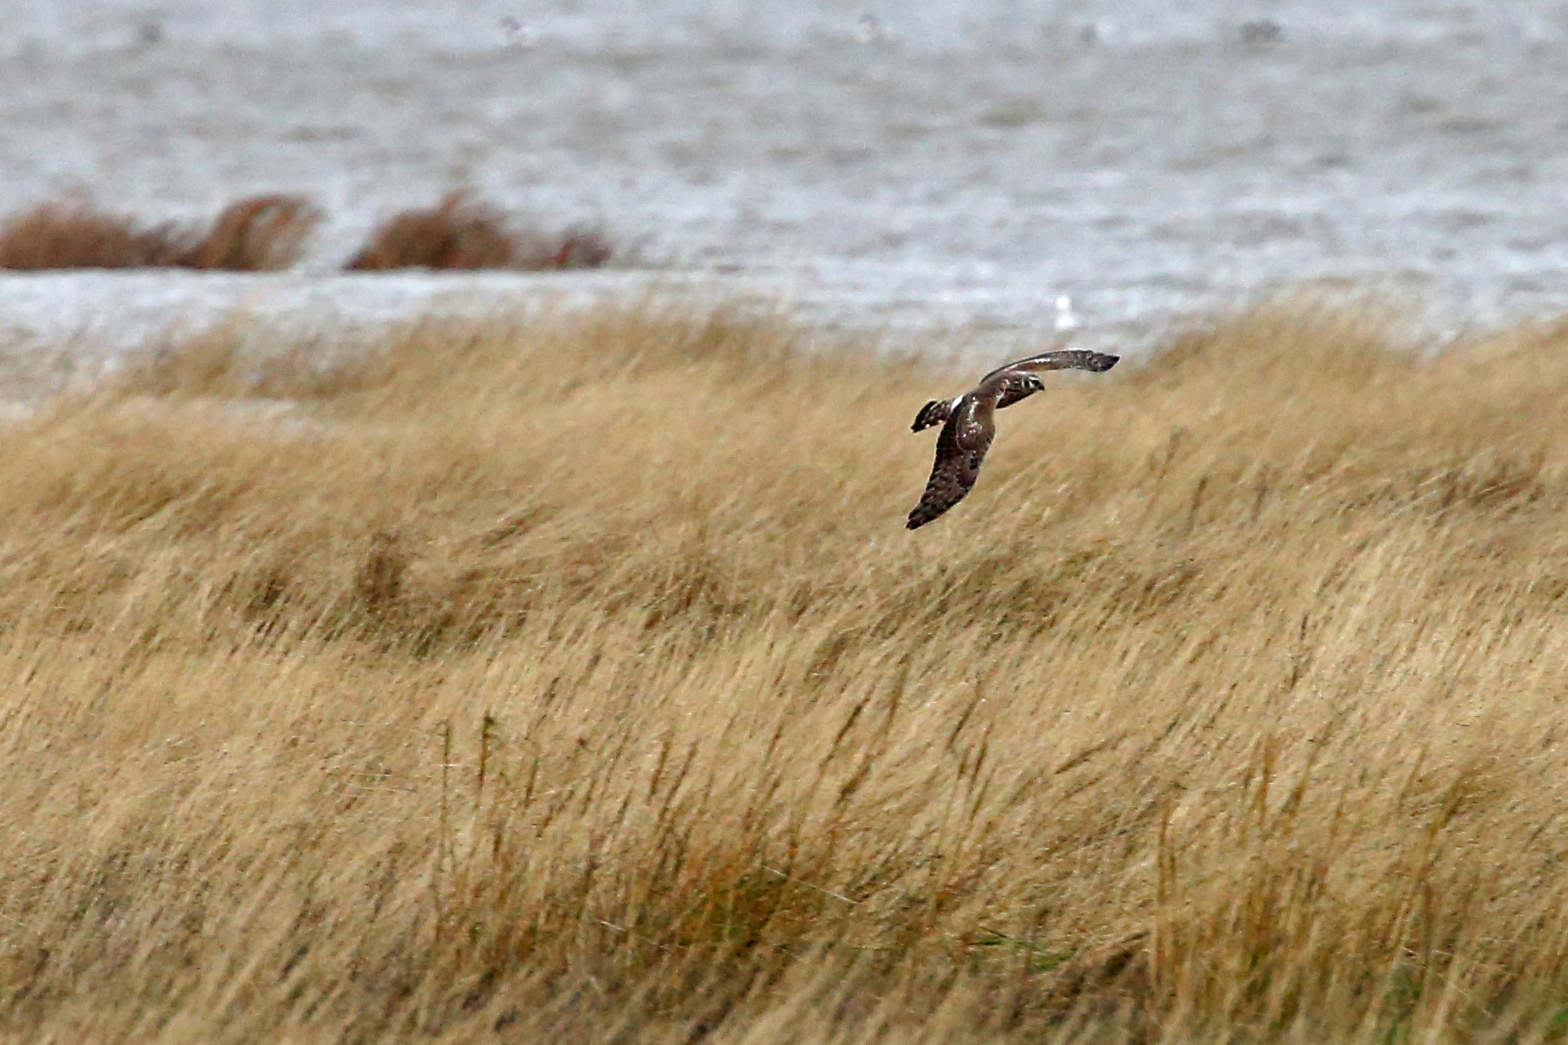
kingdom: Animalia
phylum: Chordata
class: Aves
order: Accipitriformes
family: Accipitridae
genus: Circus
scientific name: Circus cyaneus
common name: Hen harrier
